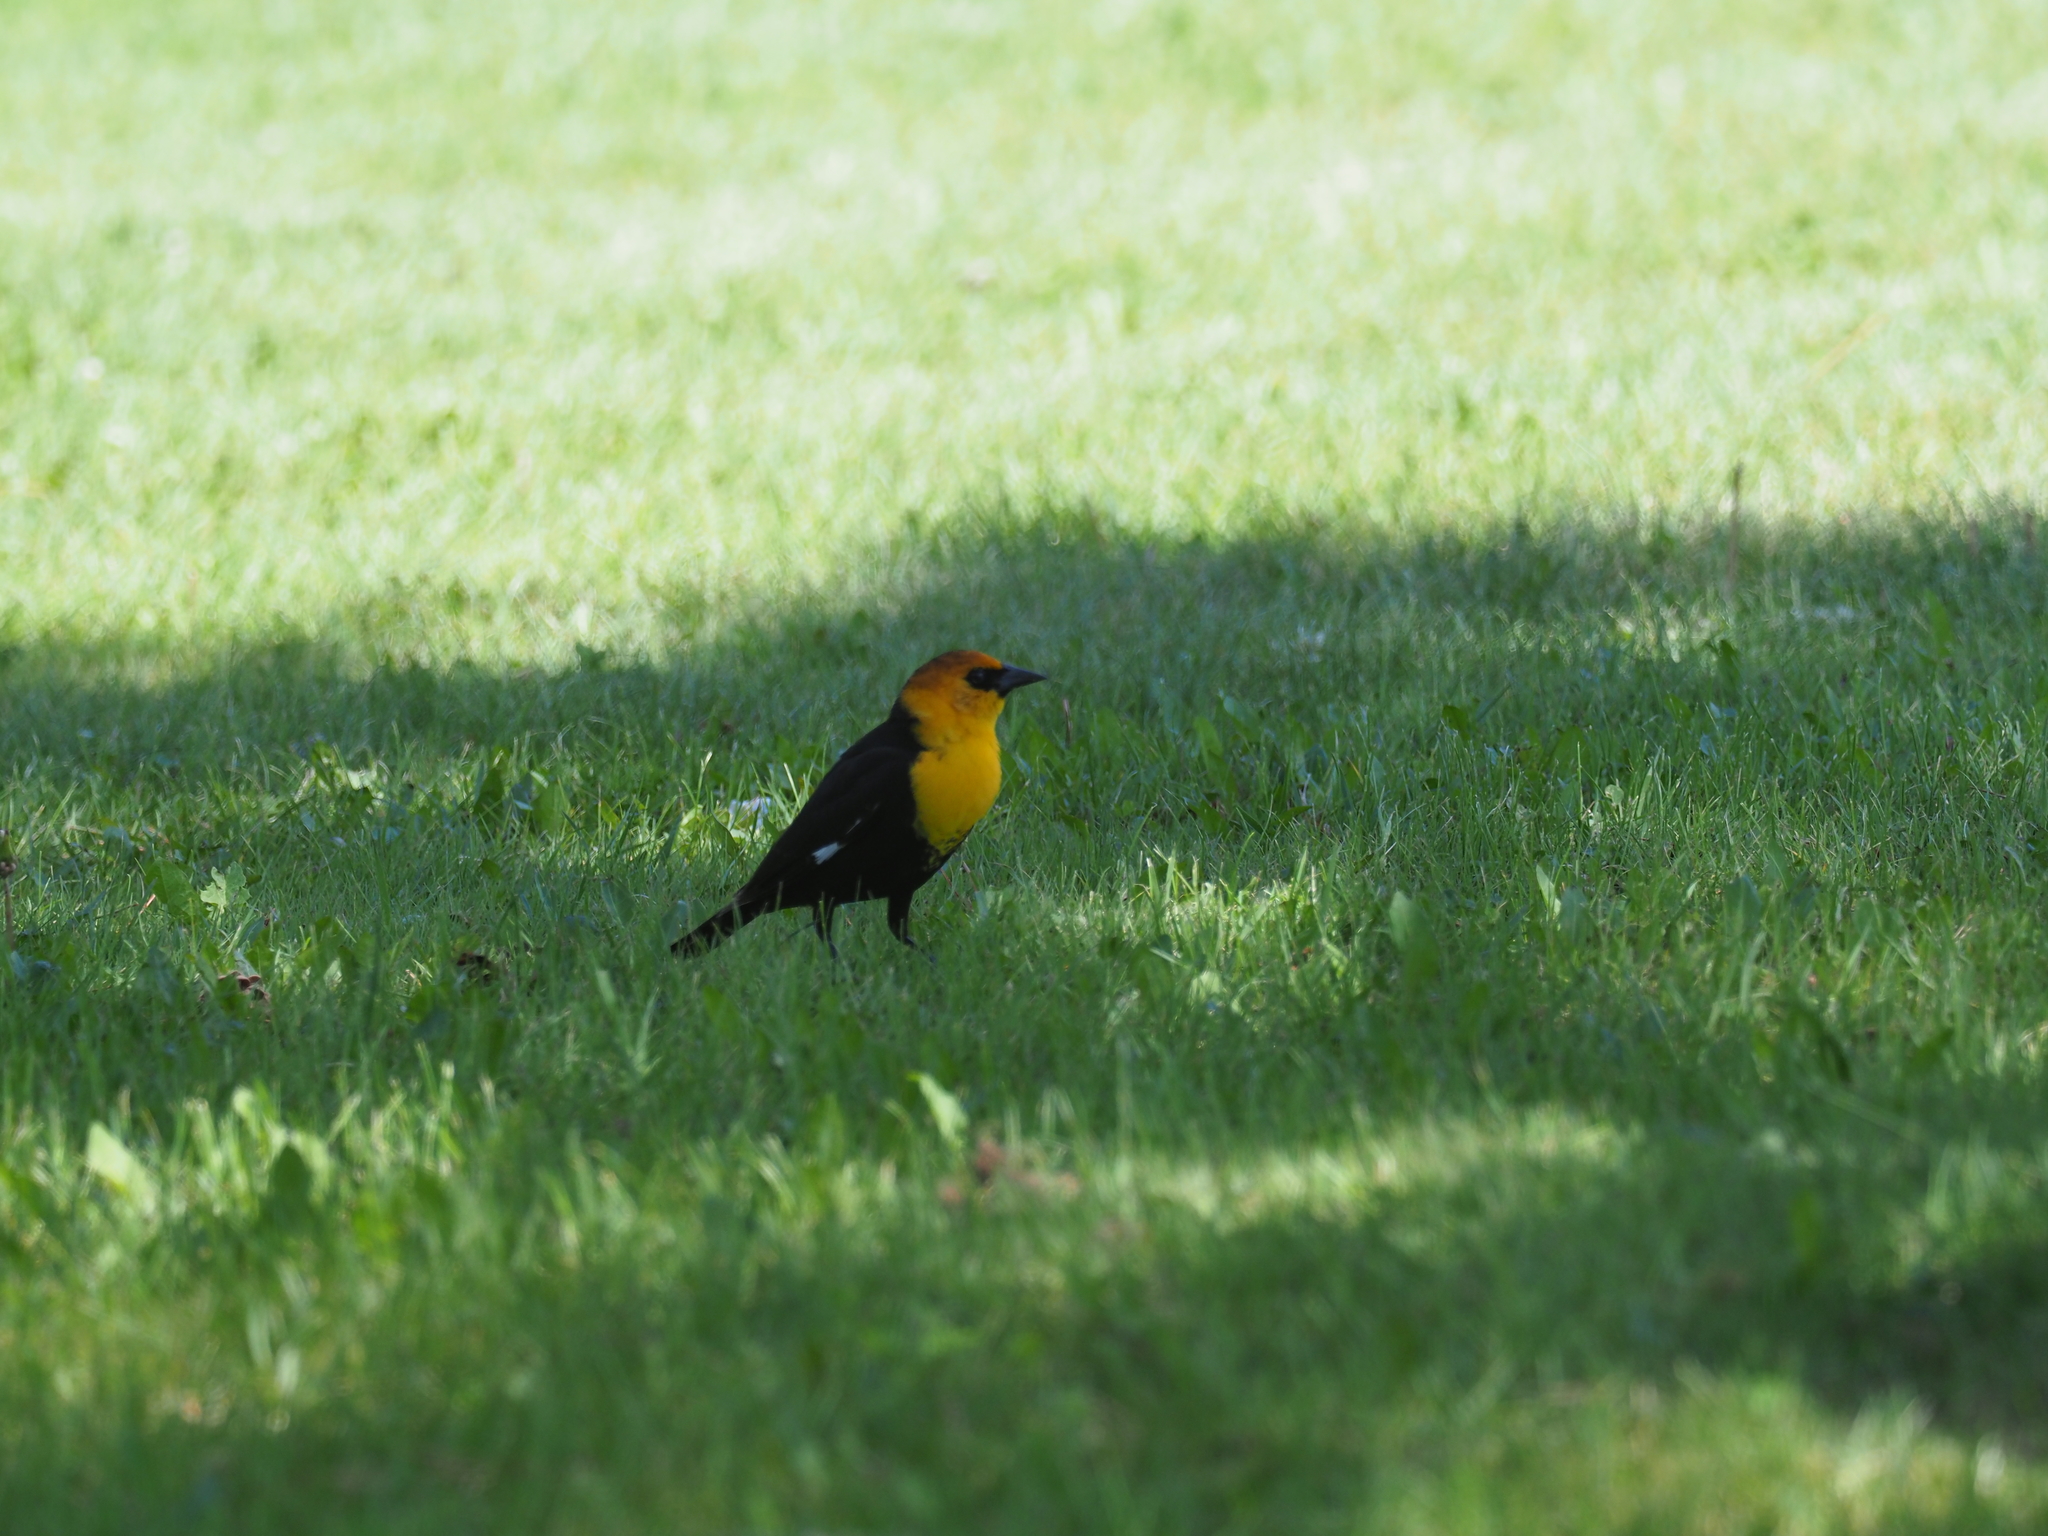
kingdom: Animalia
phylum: Chordata
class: Aves
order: Passeriformes
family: Icteridae
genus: Xanthocephalus
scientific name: Xanthocephalus xanthocephalus
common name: Yellow-headed blackbird
